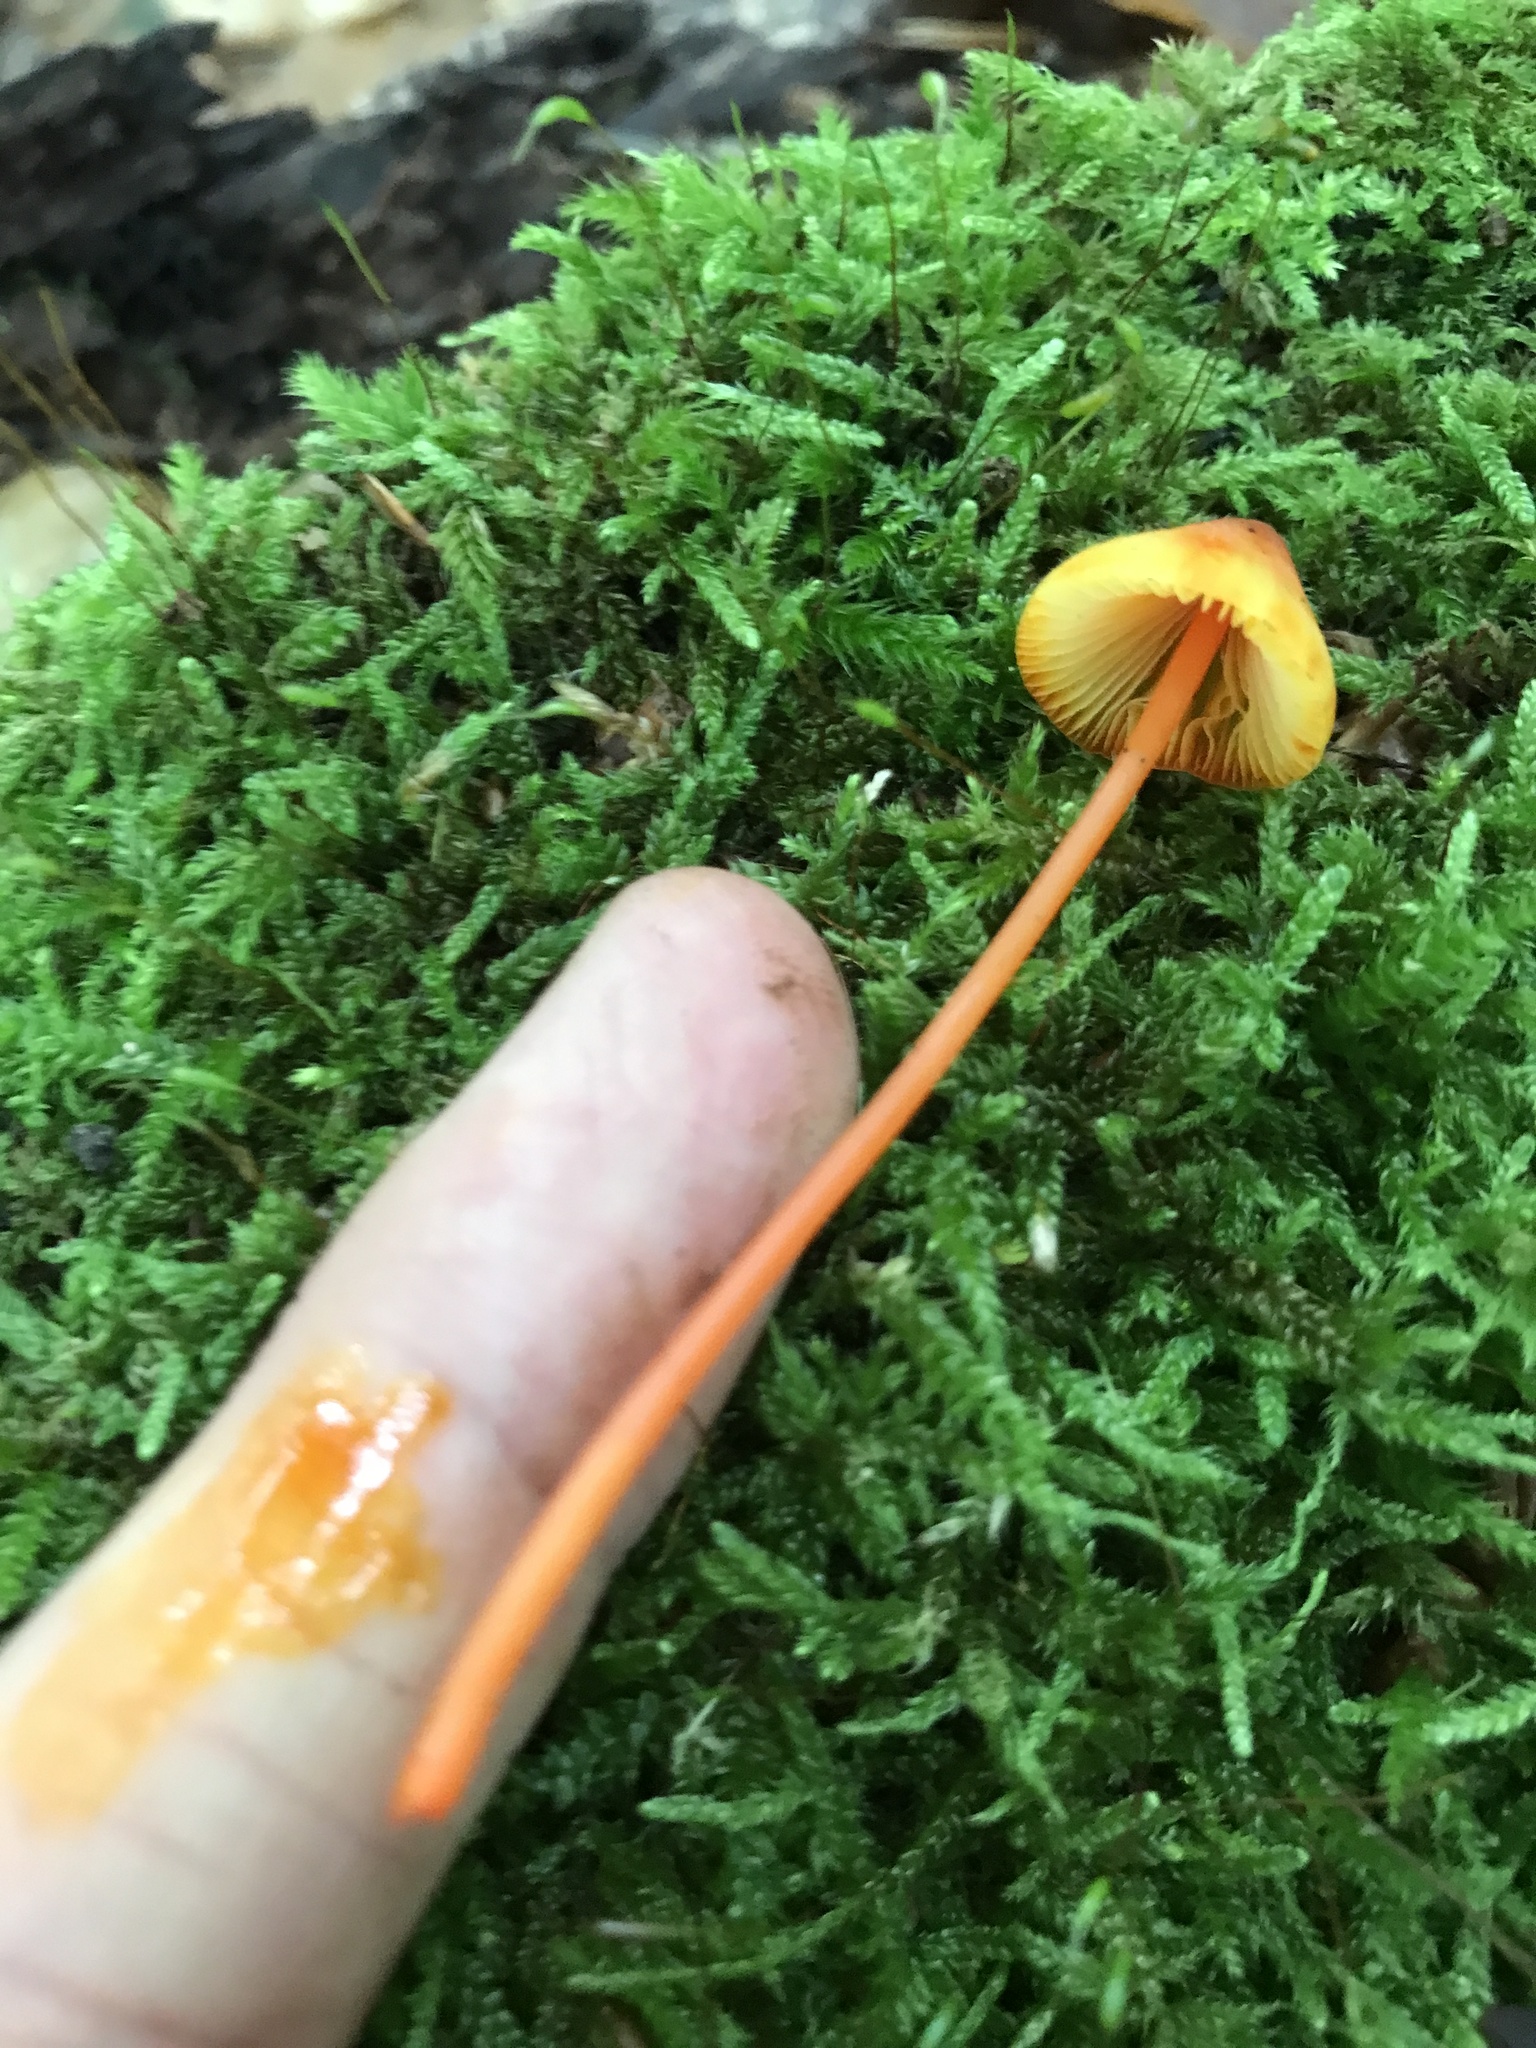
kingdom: Fungi
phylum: Basidiomycota
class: Agaricomycetes
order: Agaricales
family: Mycenaceae
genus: Mycena
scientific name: Mycena acicula
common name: Orange bonnet
